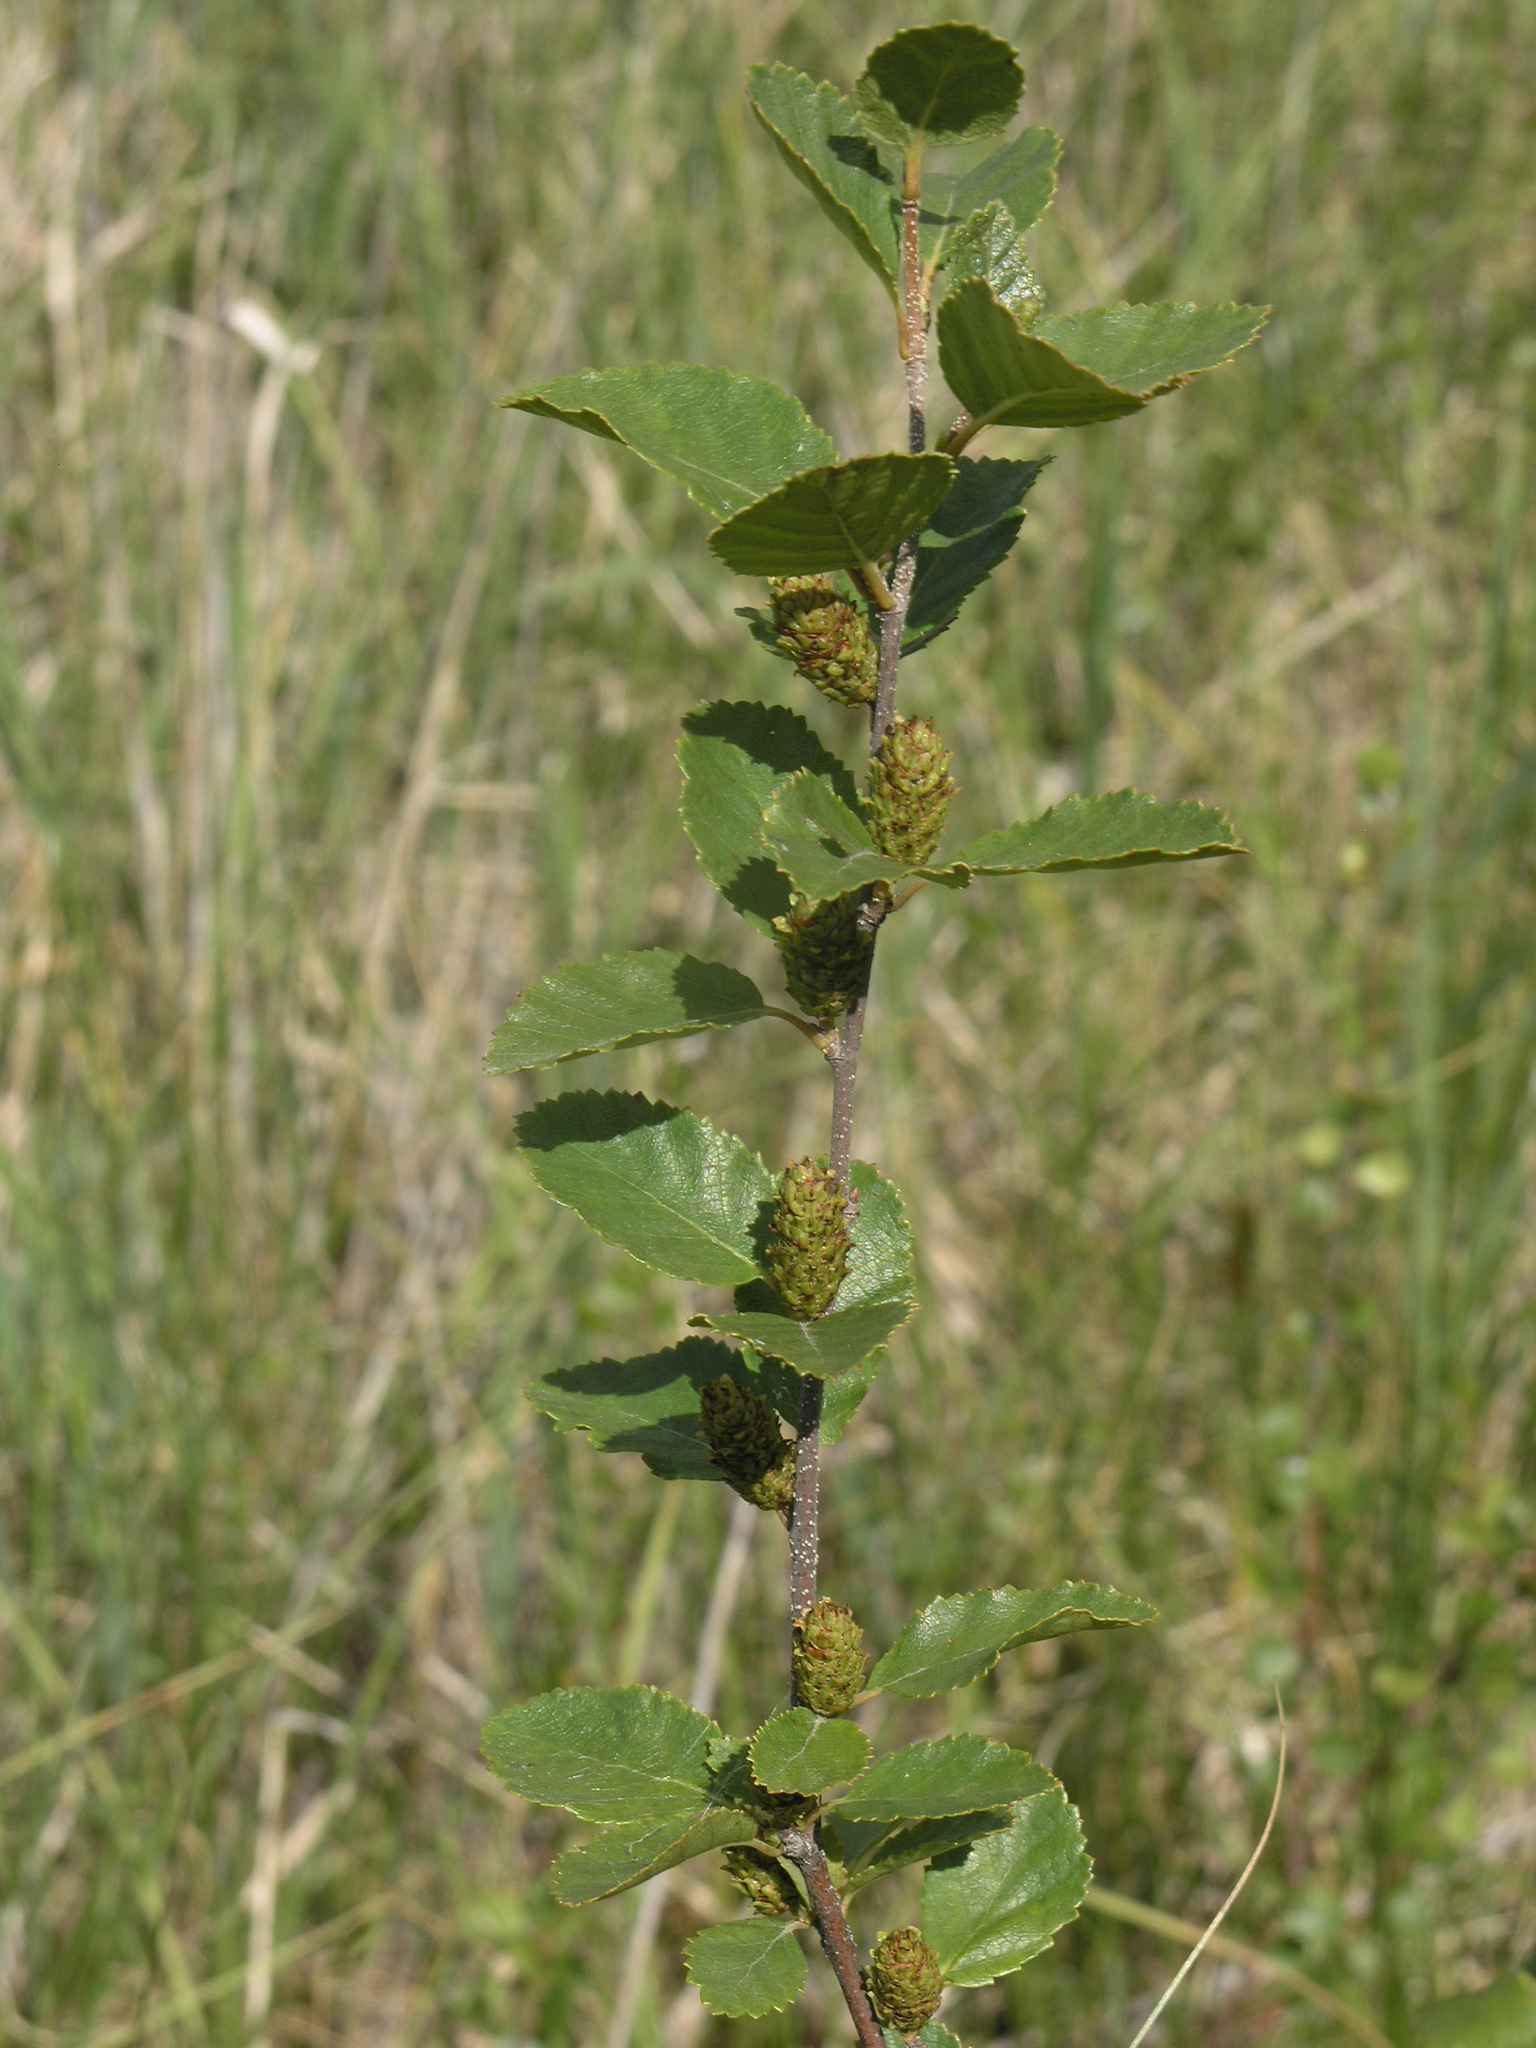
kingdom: Plantae
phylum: Tracheophyta
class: Magnoliopsida
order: Fagales
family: Betulaceae
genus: Betula
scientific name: Betula nana
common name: Arctic dwarf birch
